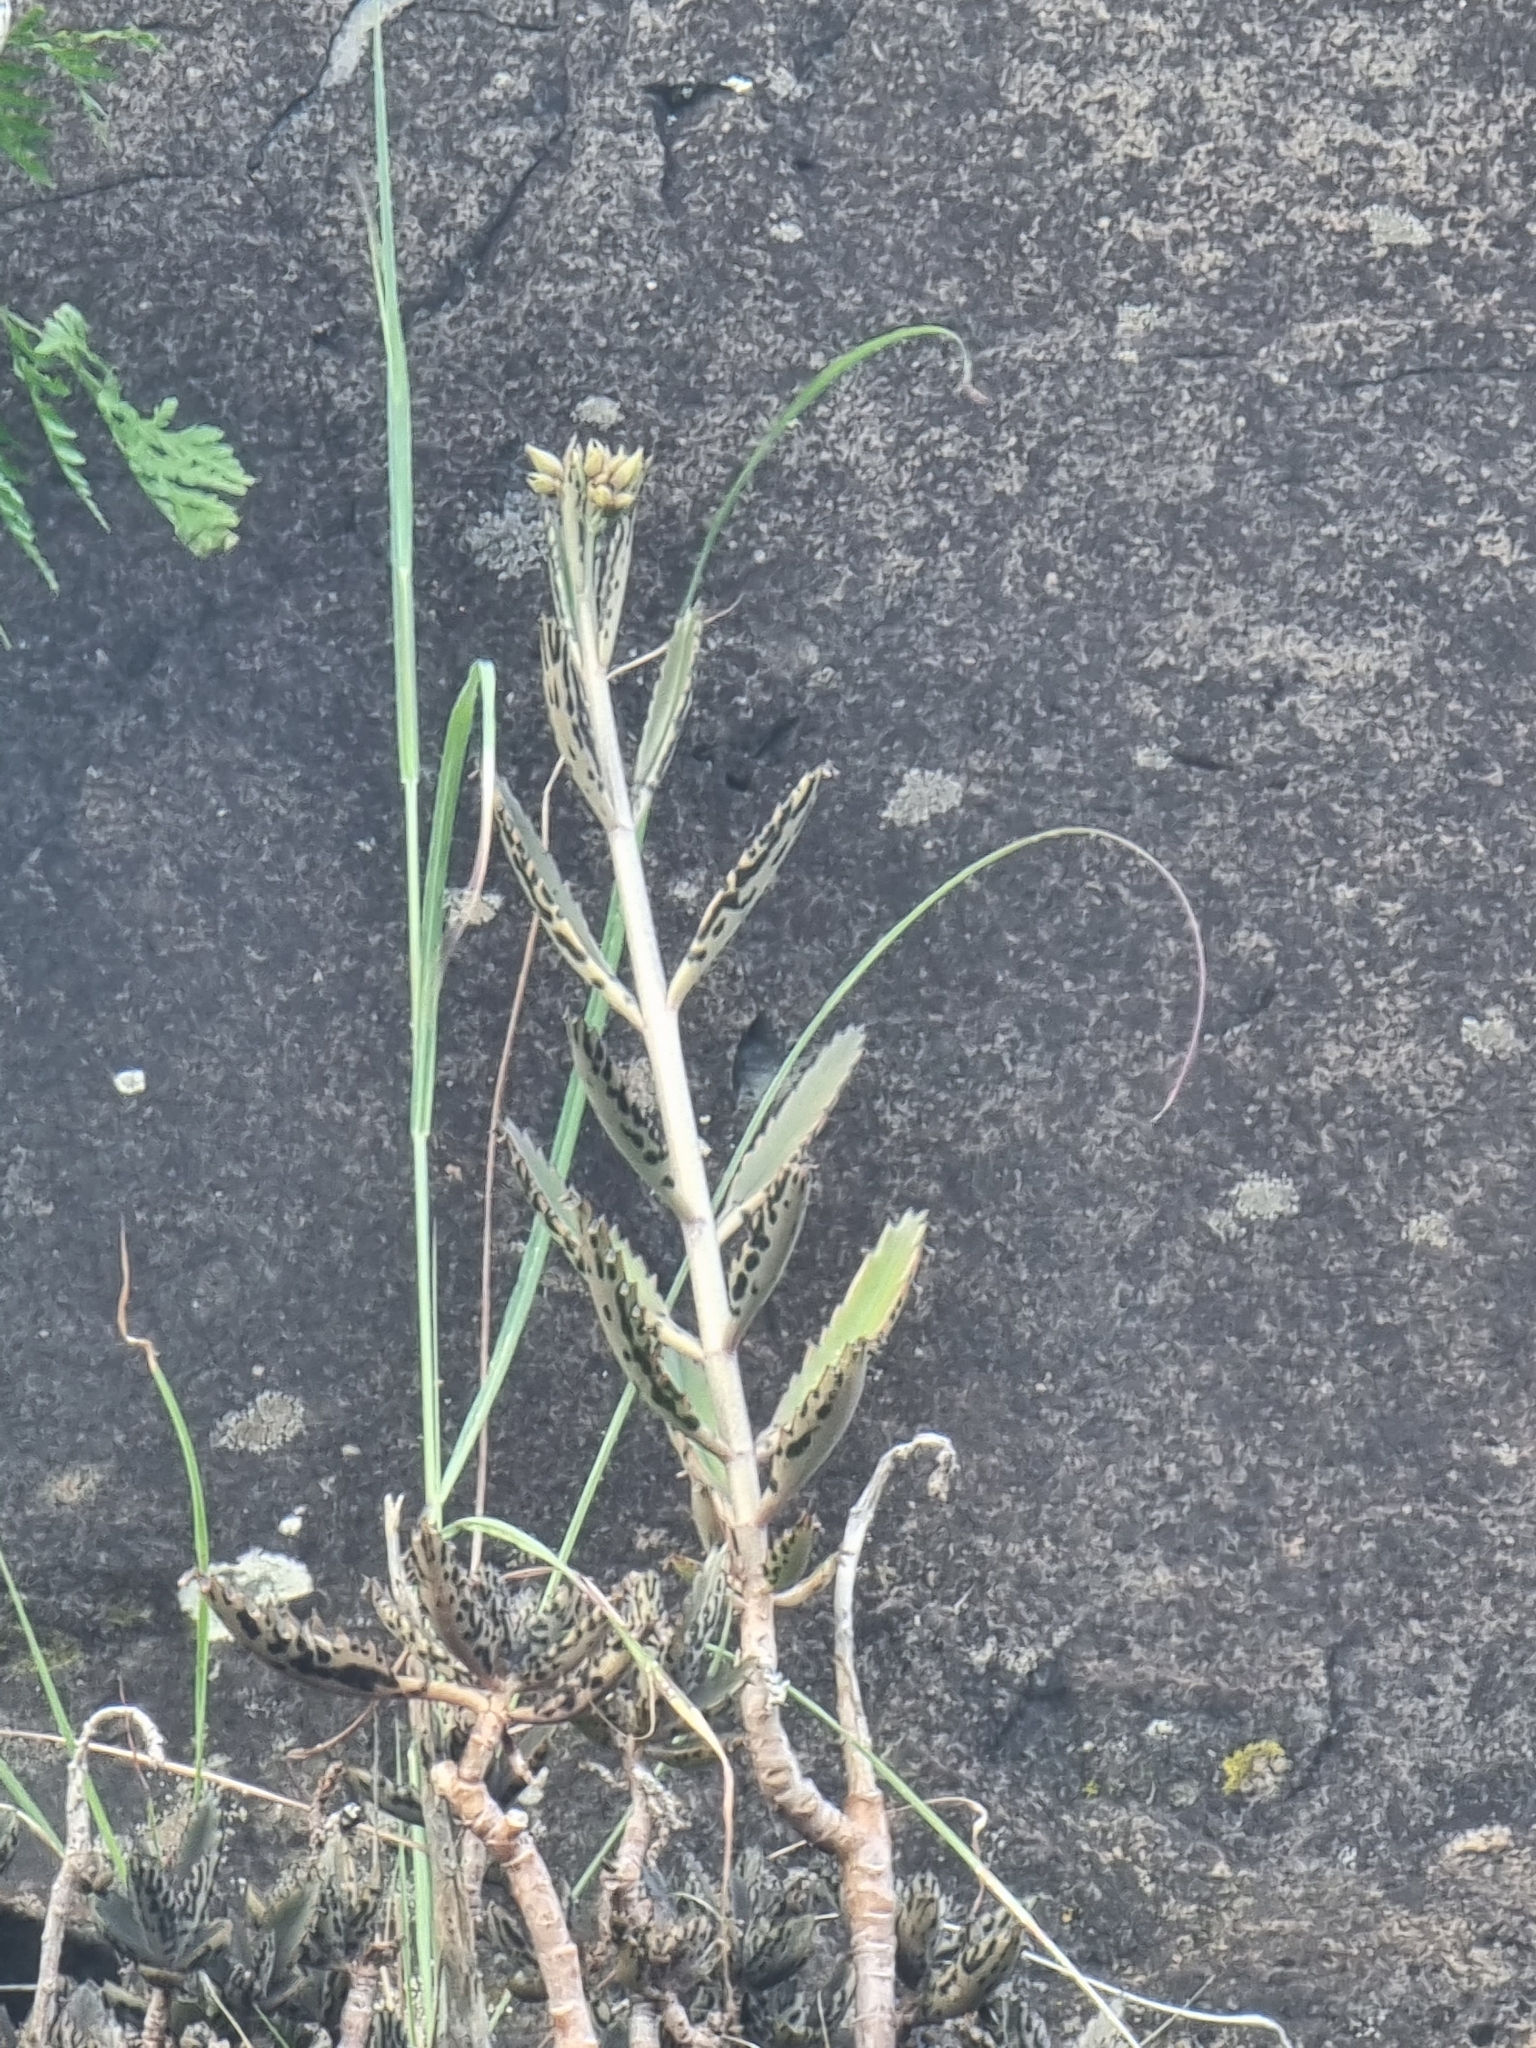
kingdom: Plantae
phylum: Tracheophyta
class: Magnoliopsida
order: Saxifragales
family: Crassulaceae
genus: Kalanchoe
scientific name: Kalanchoe houghtonii
